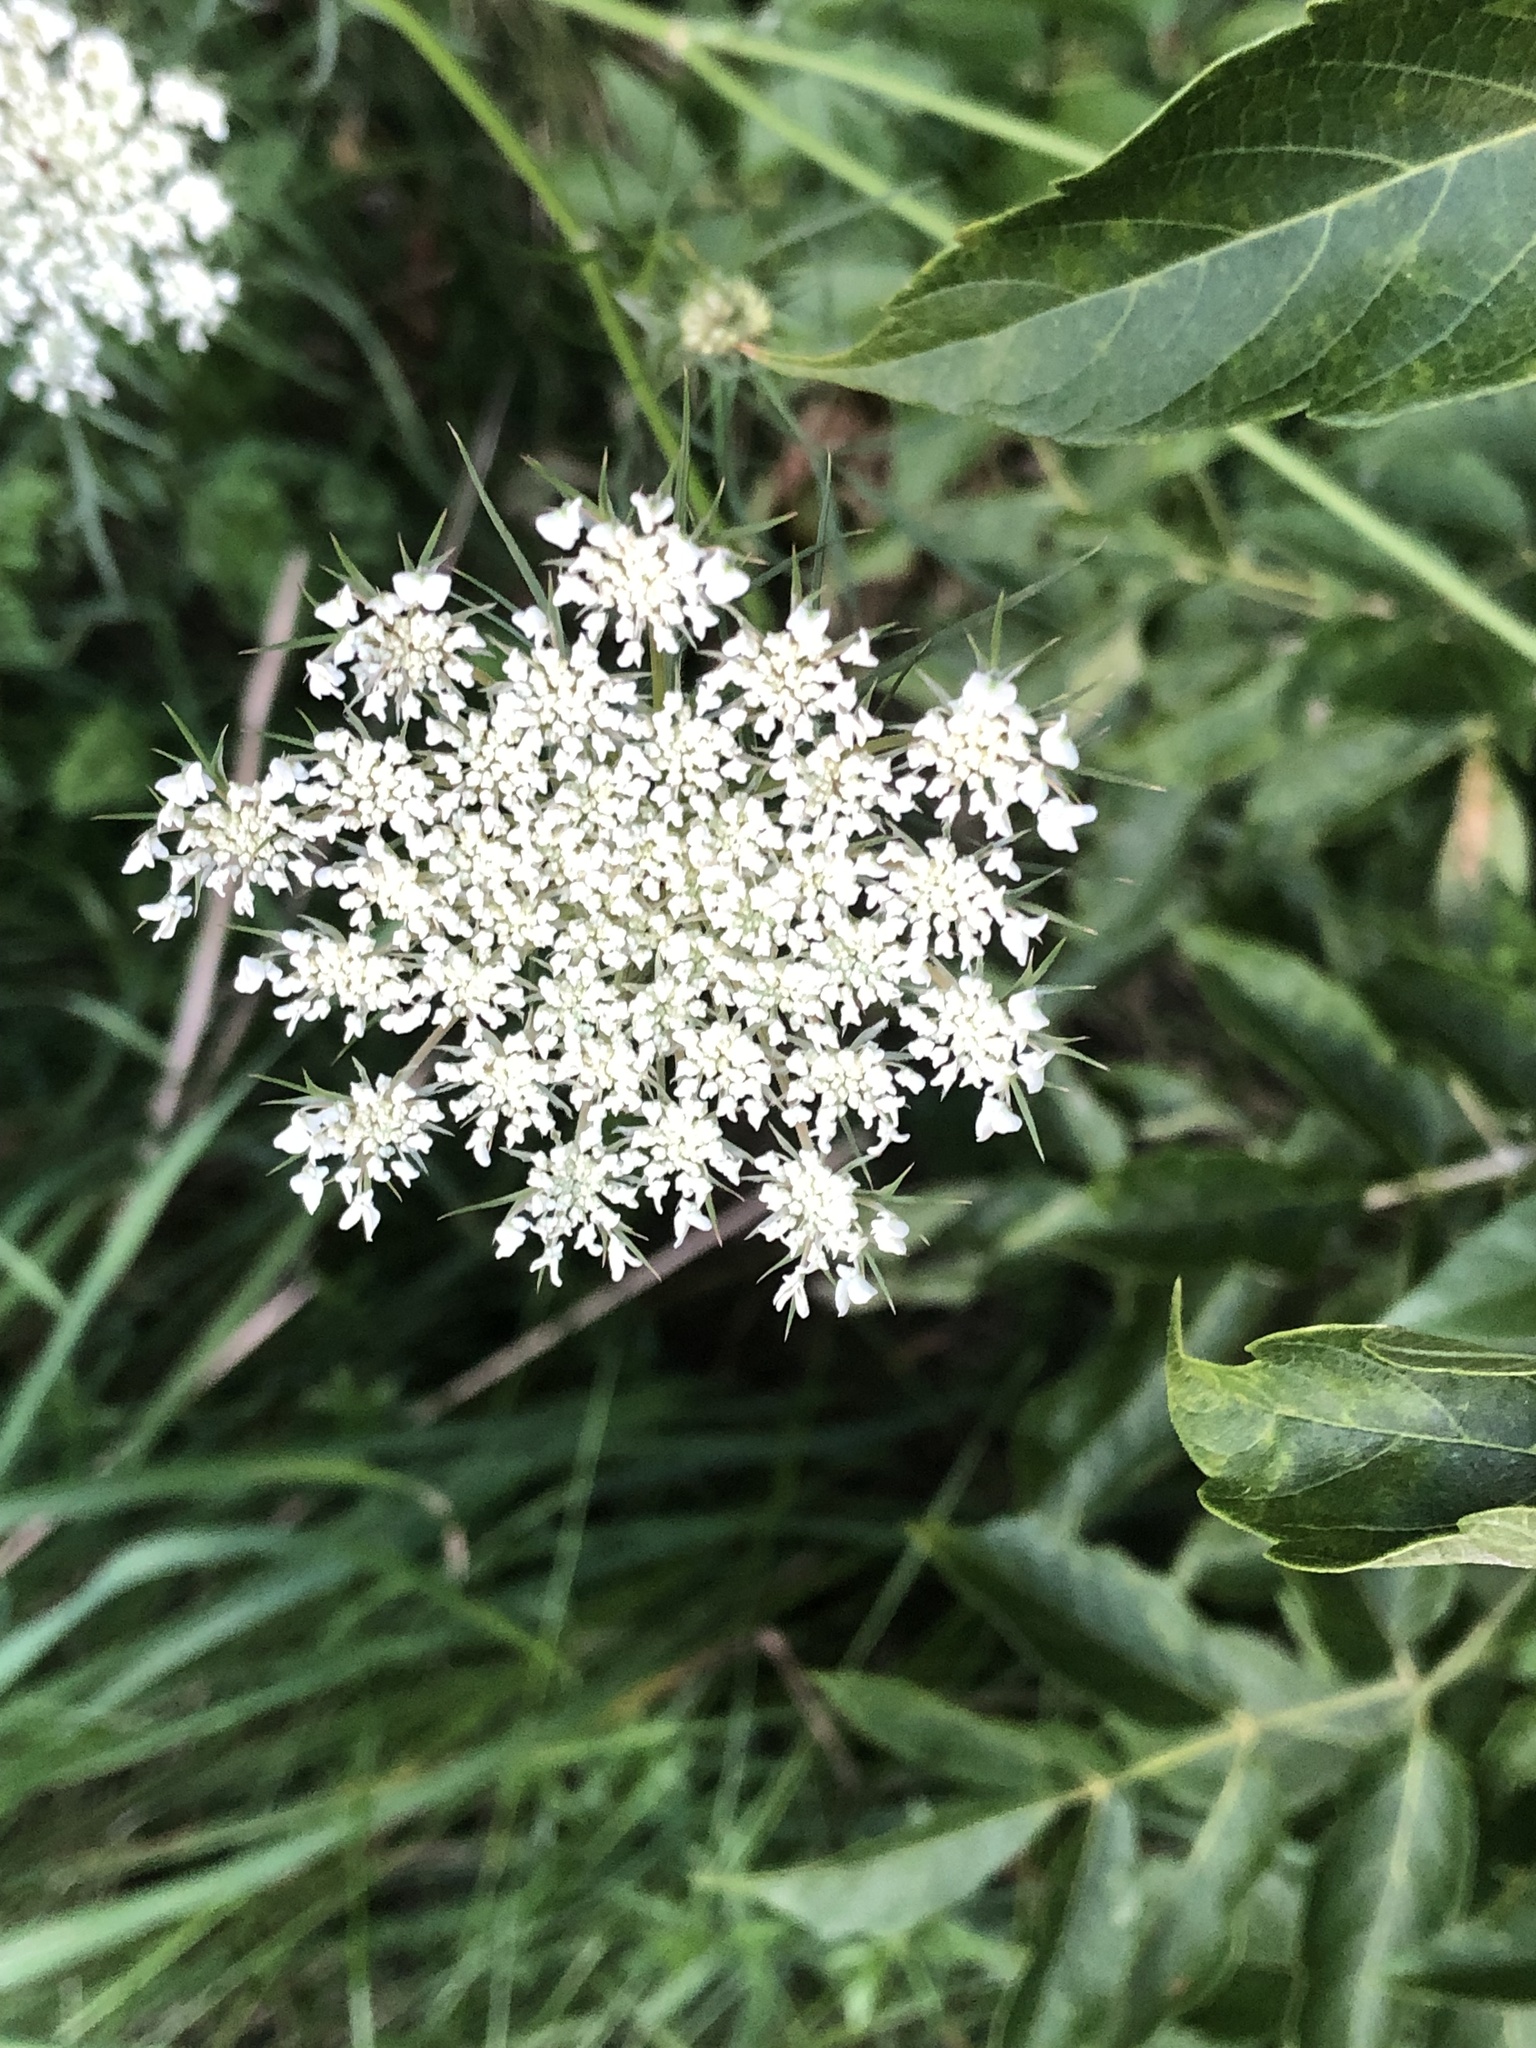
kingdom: Plantae
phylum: Tracheophyta
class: Magnoliopsida
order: Apiales
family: Apiaceae
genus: Daucus
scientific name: Daucus carota
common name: Wild carrot
